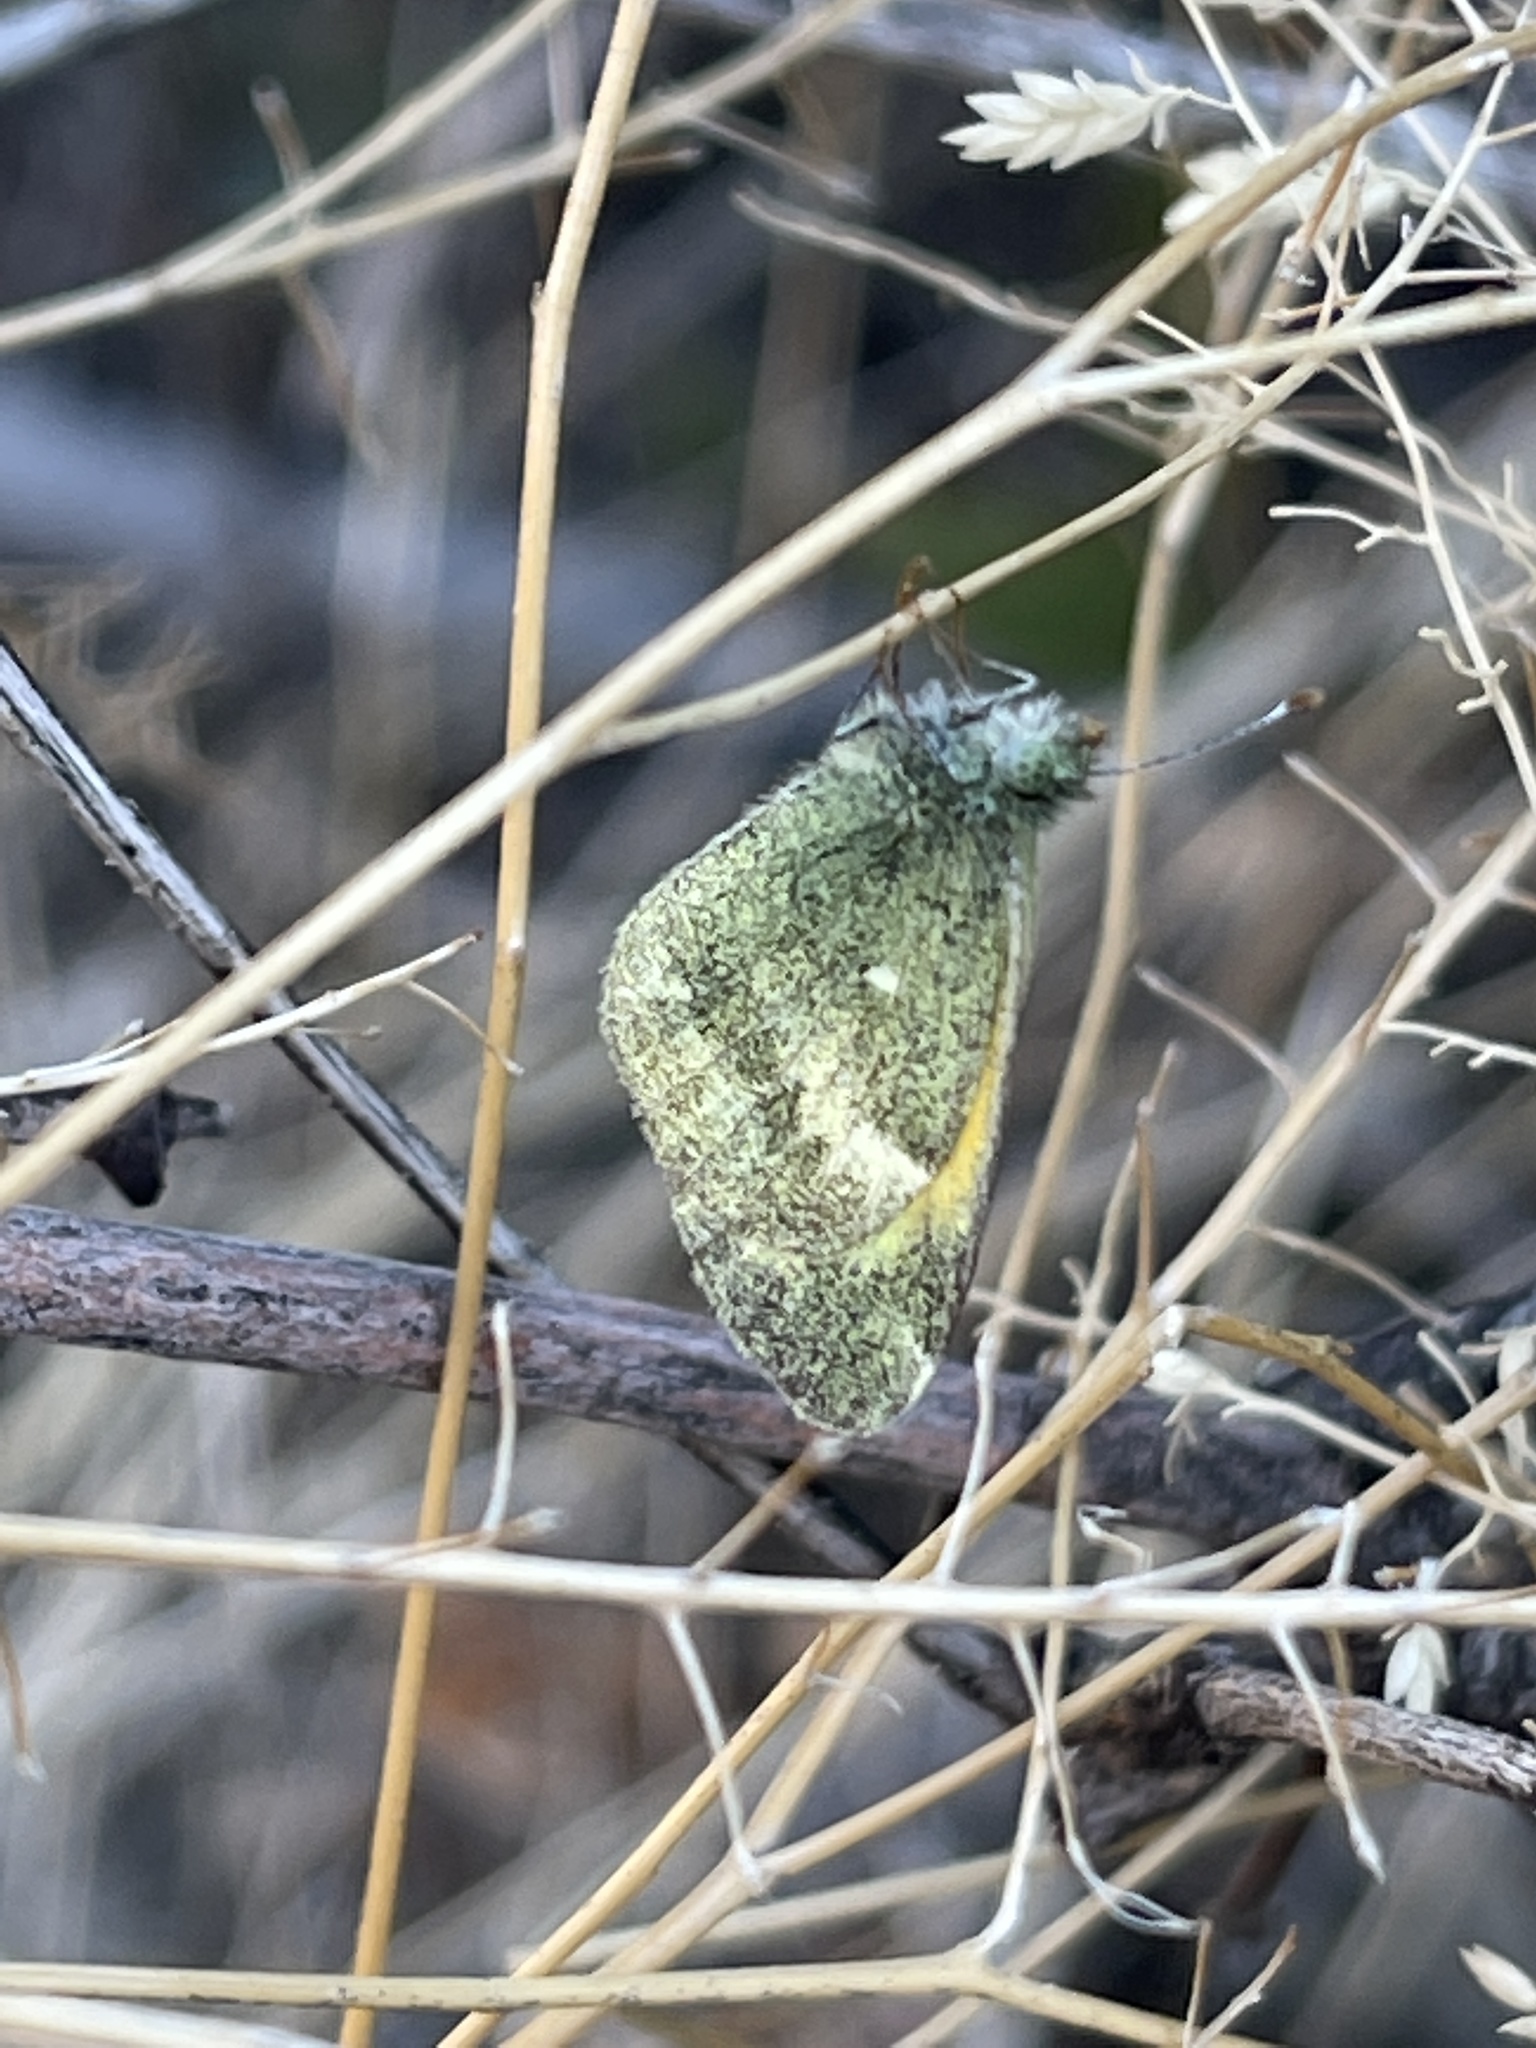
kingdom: Animalia
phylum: Arthropoda
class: Insecta
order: Lepidoptera
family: Pieridae
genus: Nathalis
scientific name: Nathalis iole
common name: Dainty sulphur
